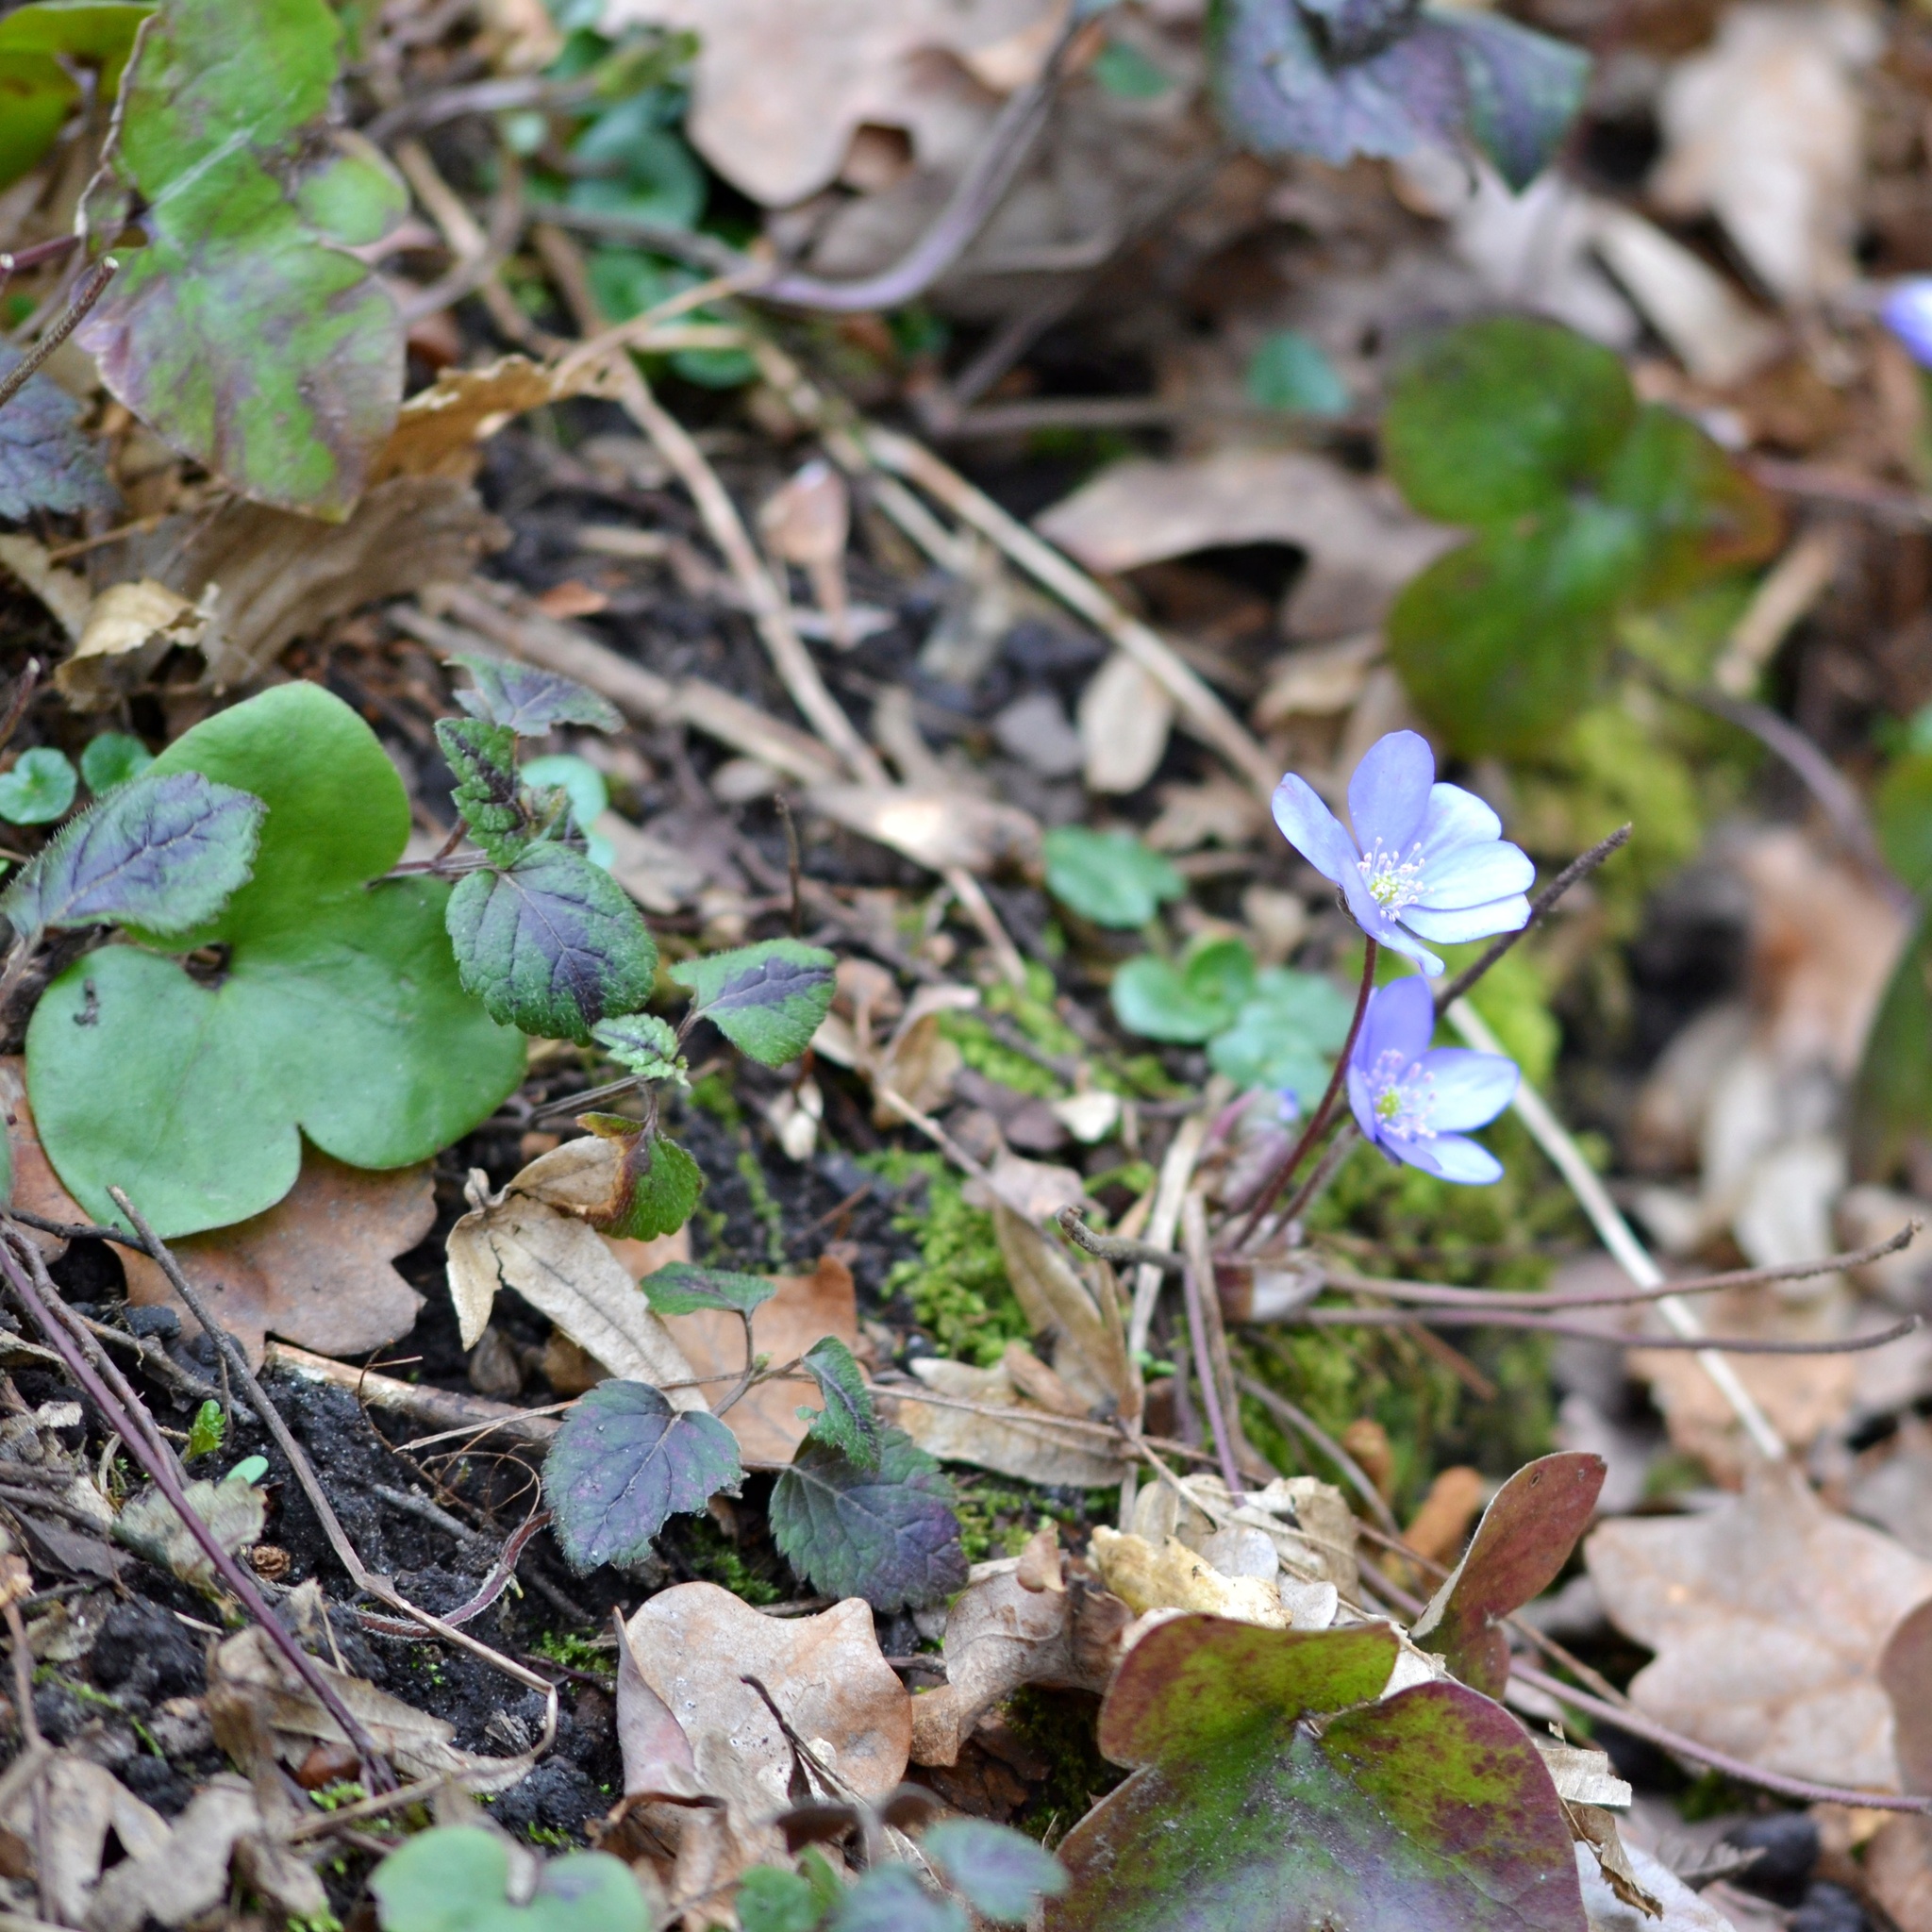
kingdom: Plantae
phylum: Tracheophyta
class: Magnoliopsida
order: Ranunculales
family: Ranunculaceae
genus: Hepatica
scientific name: Hepatica nobilis
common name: Liverleaf
